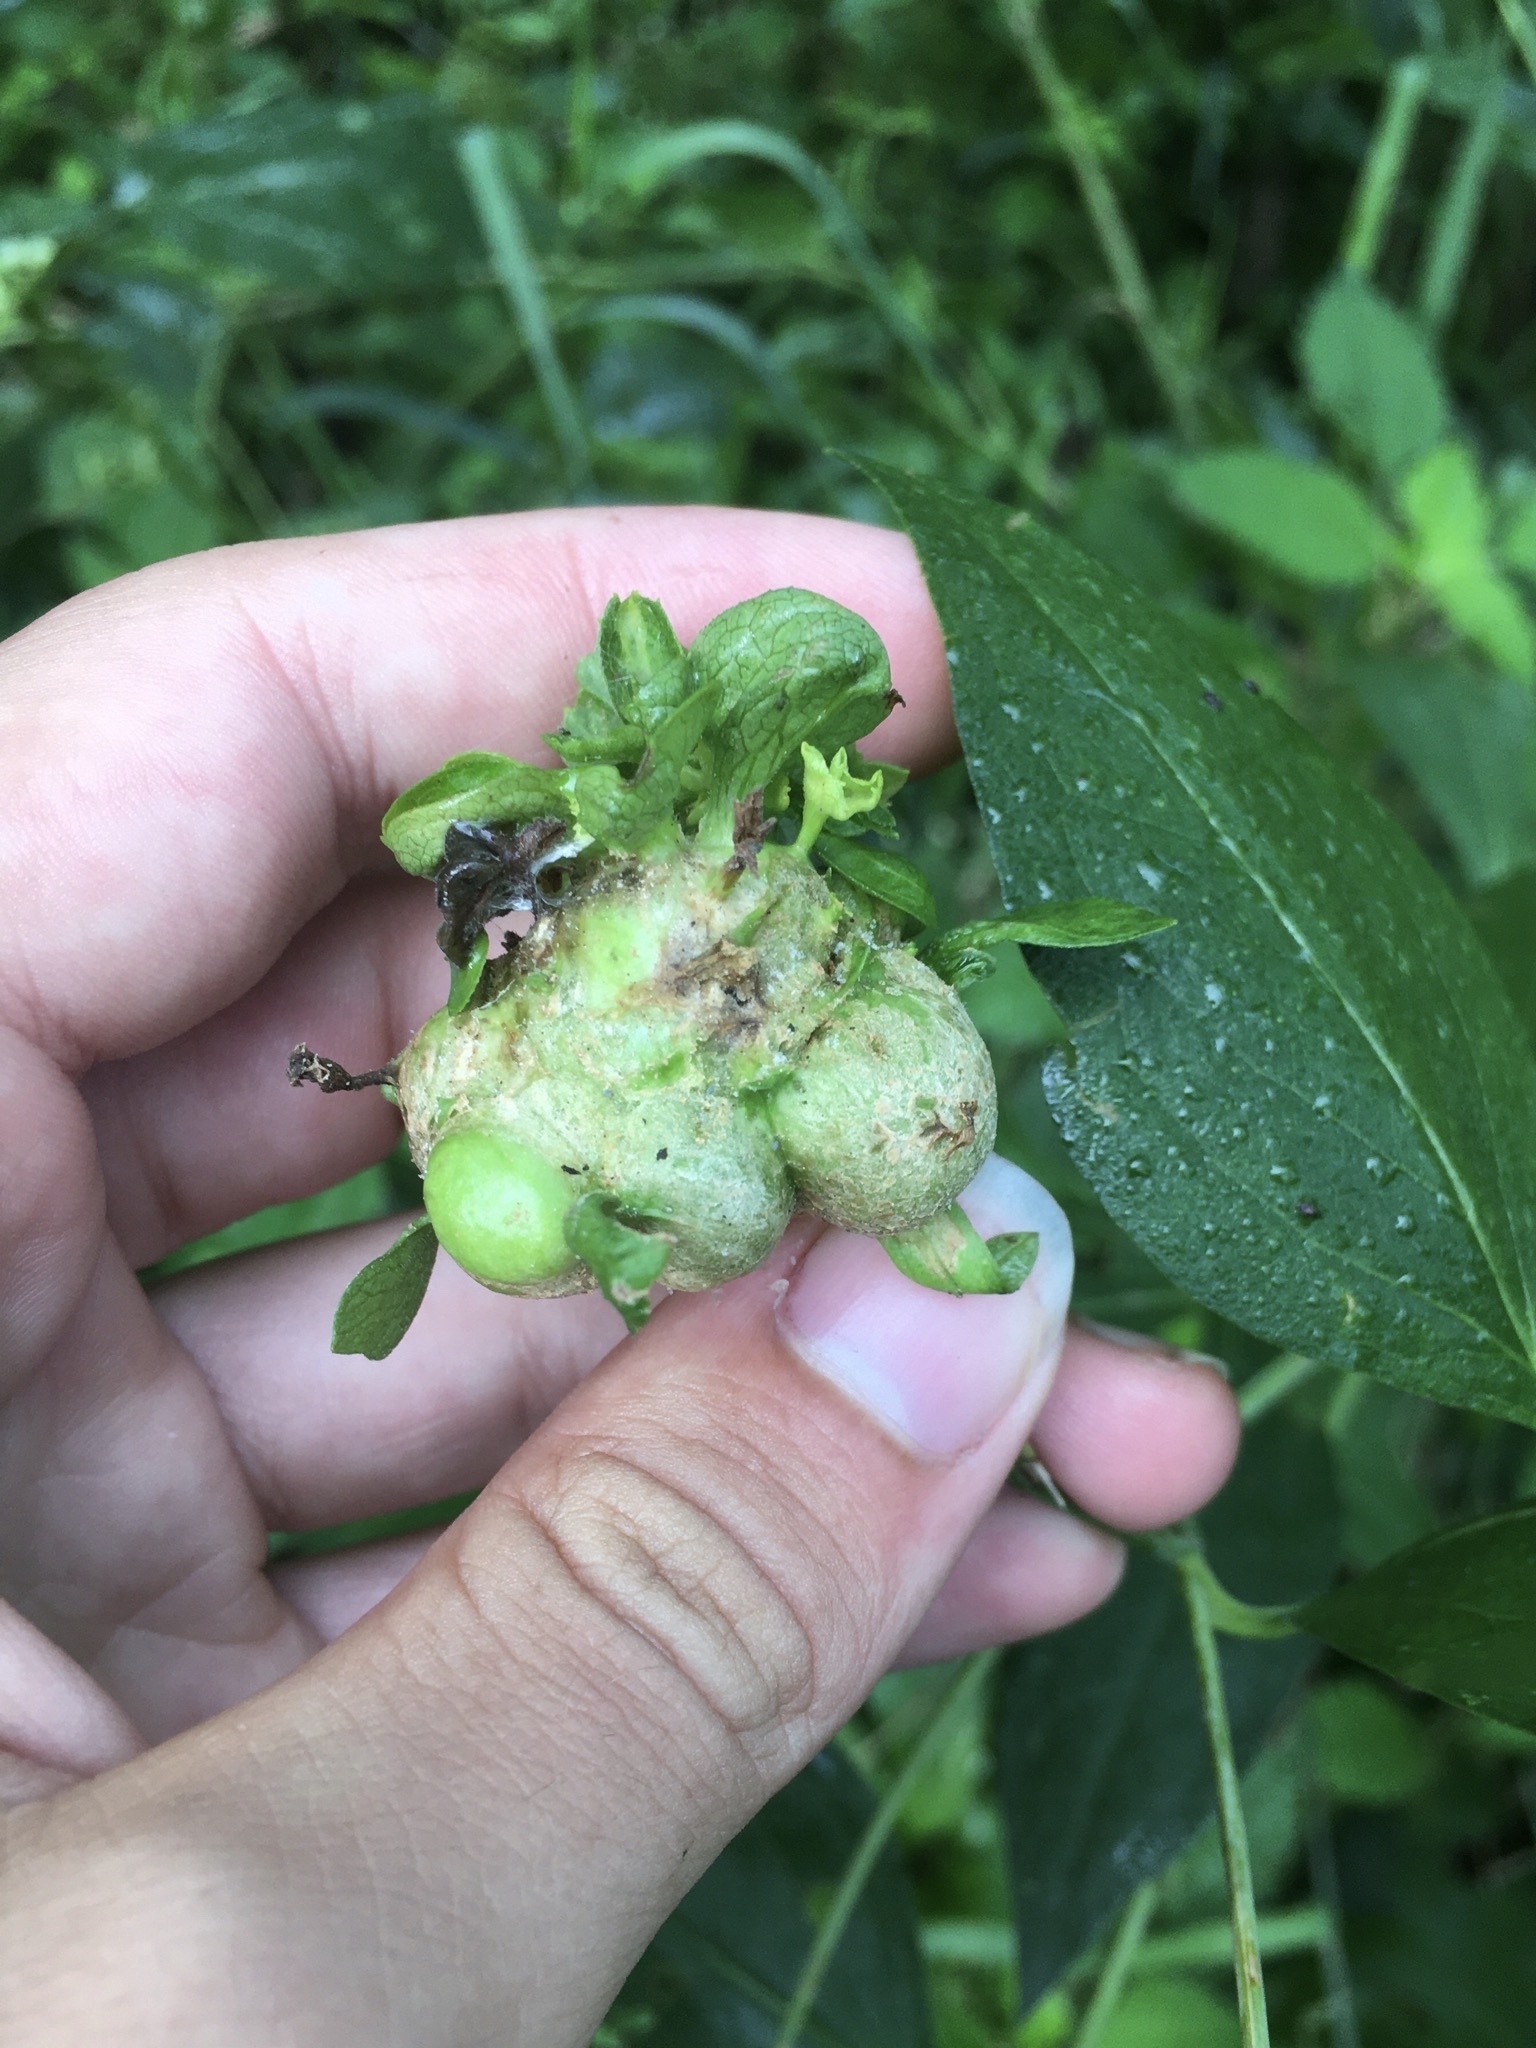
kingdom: Animalia
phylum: Arthropoda
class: Insecta
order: Diptera
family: Cecidomyiidae
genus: Asphondylia
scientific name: Asphondylia rudbeckiaeconspicua
